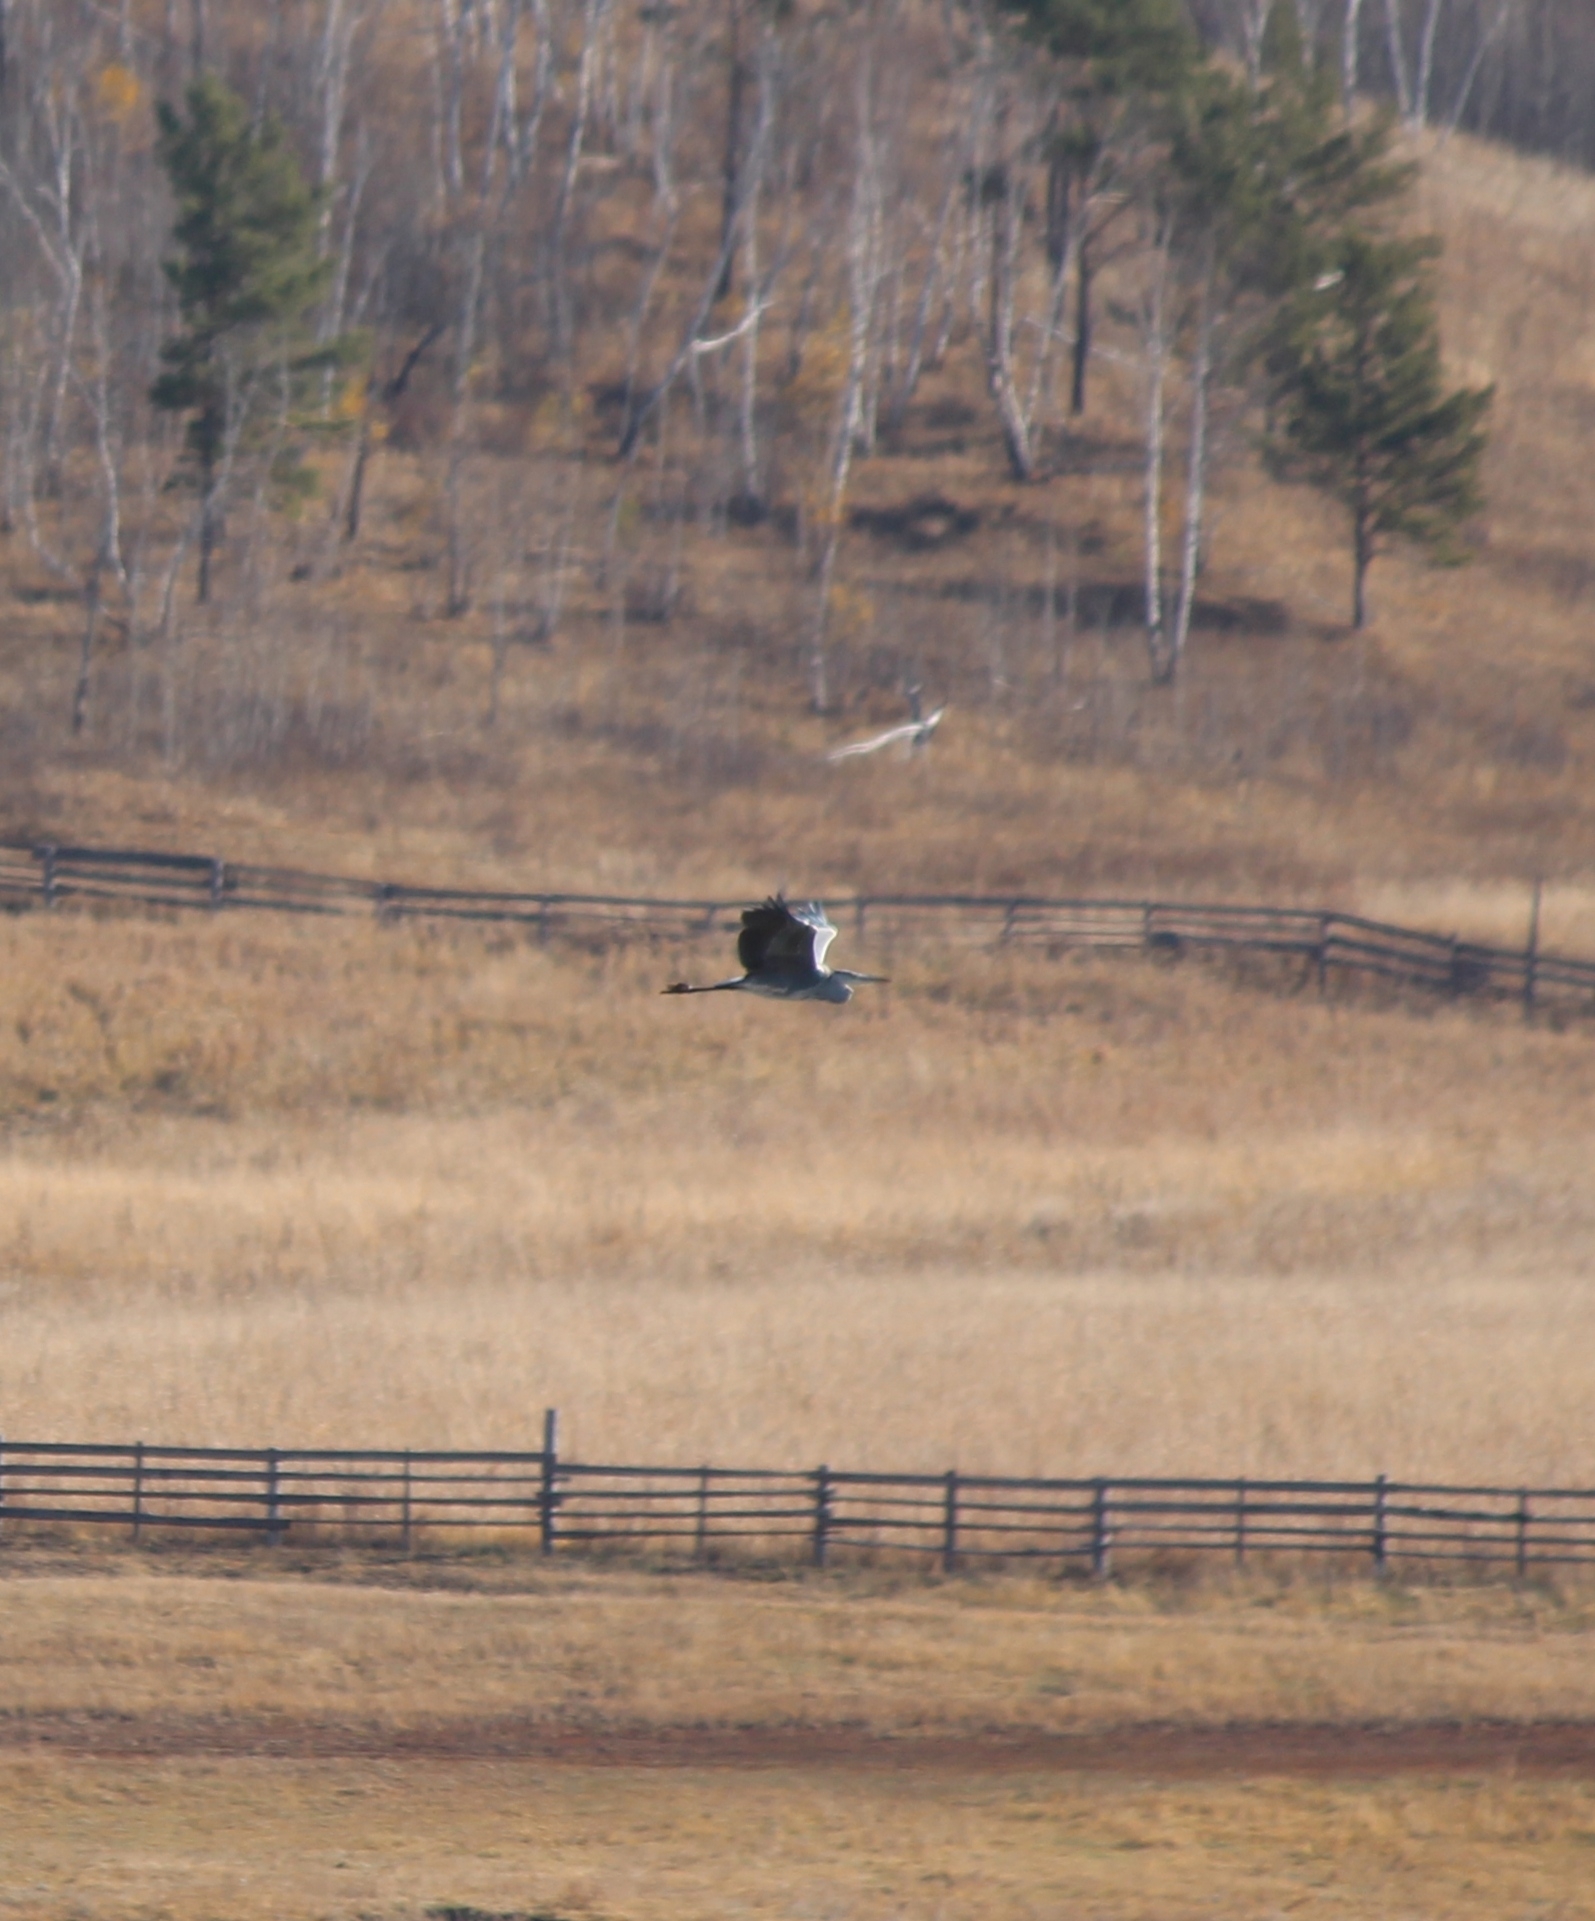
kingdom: Animalia
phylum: Chordata
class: Aves
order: Pelecaniformes
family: Ardeidae
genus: Ardea
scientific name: Ardea cinerea
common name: Grey heron
